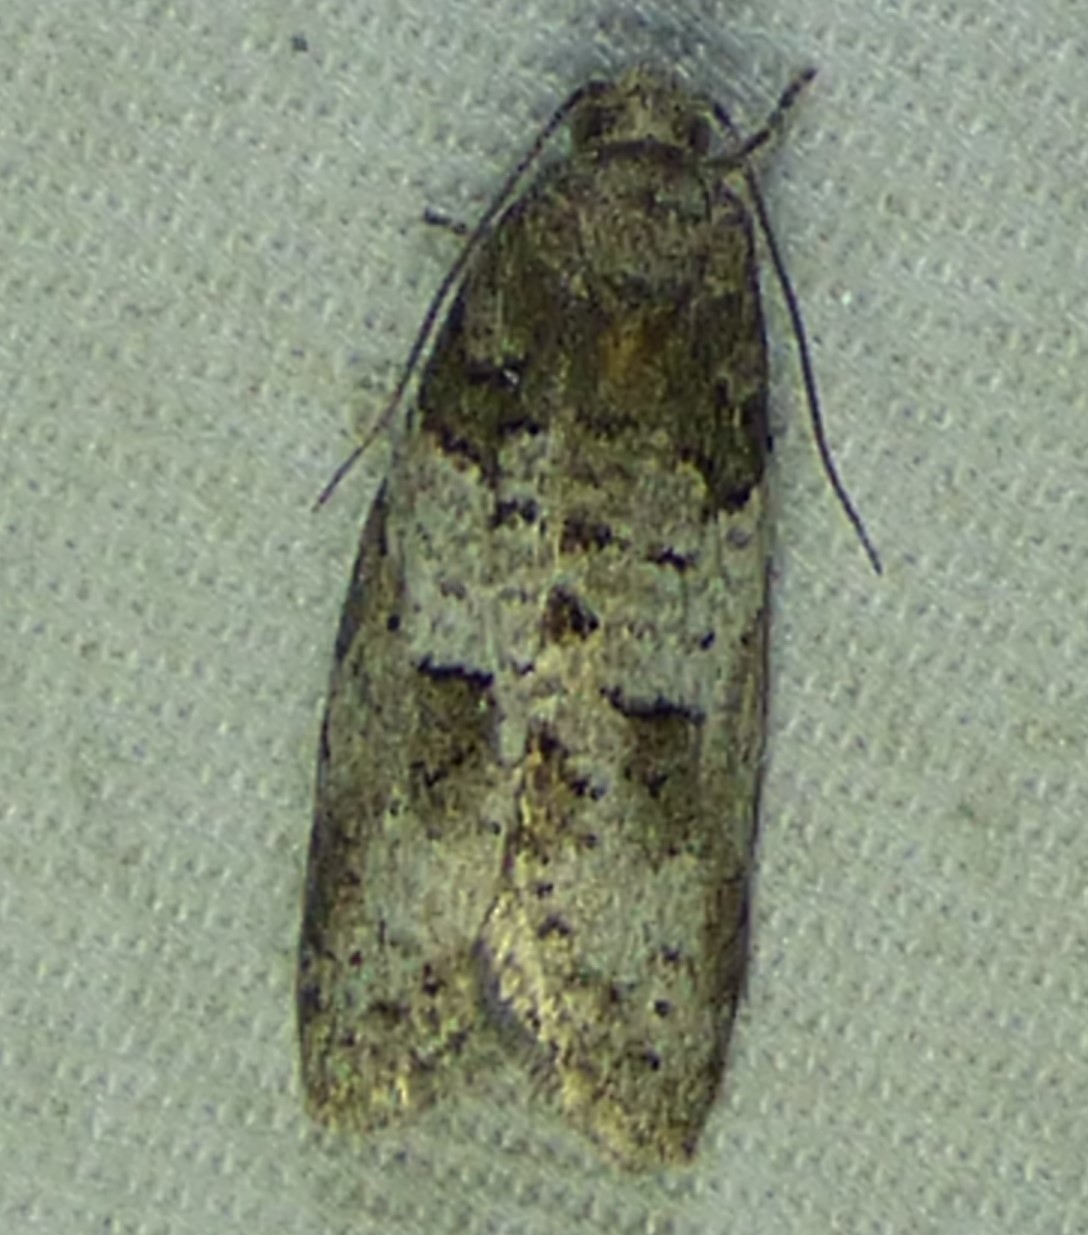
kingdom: Animalia
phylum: Arthropoda
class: Insecta
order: Lepidoptera
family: Tortricidae
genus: Decodes
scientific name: Decodes basiplagana
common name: Gray-marked tortricid
